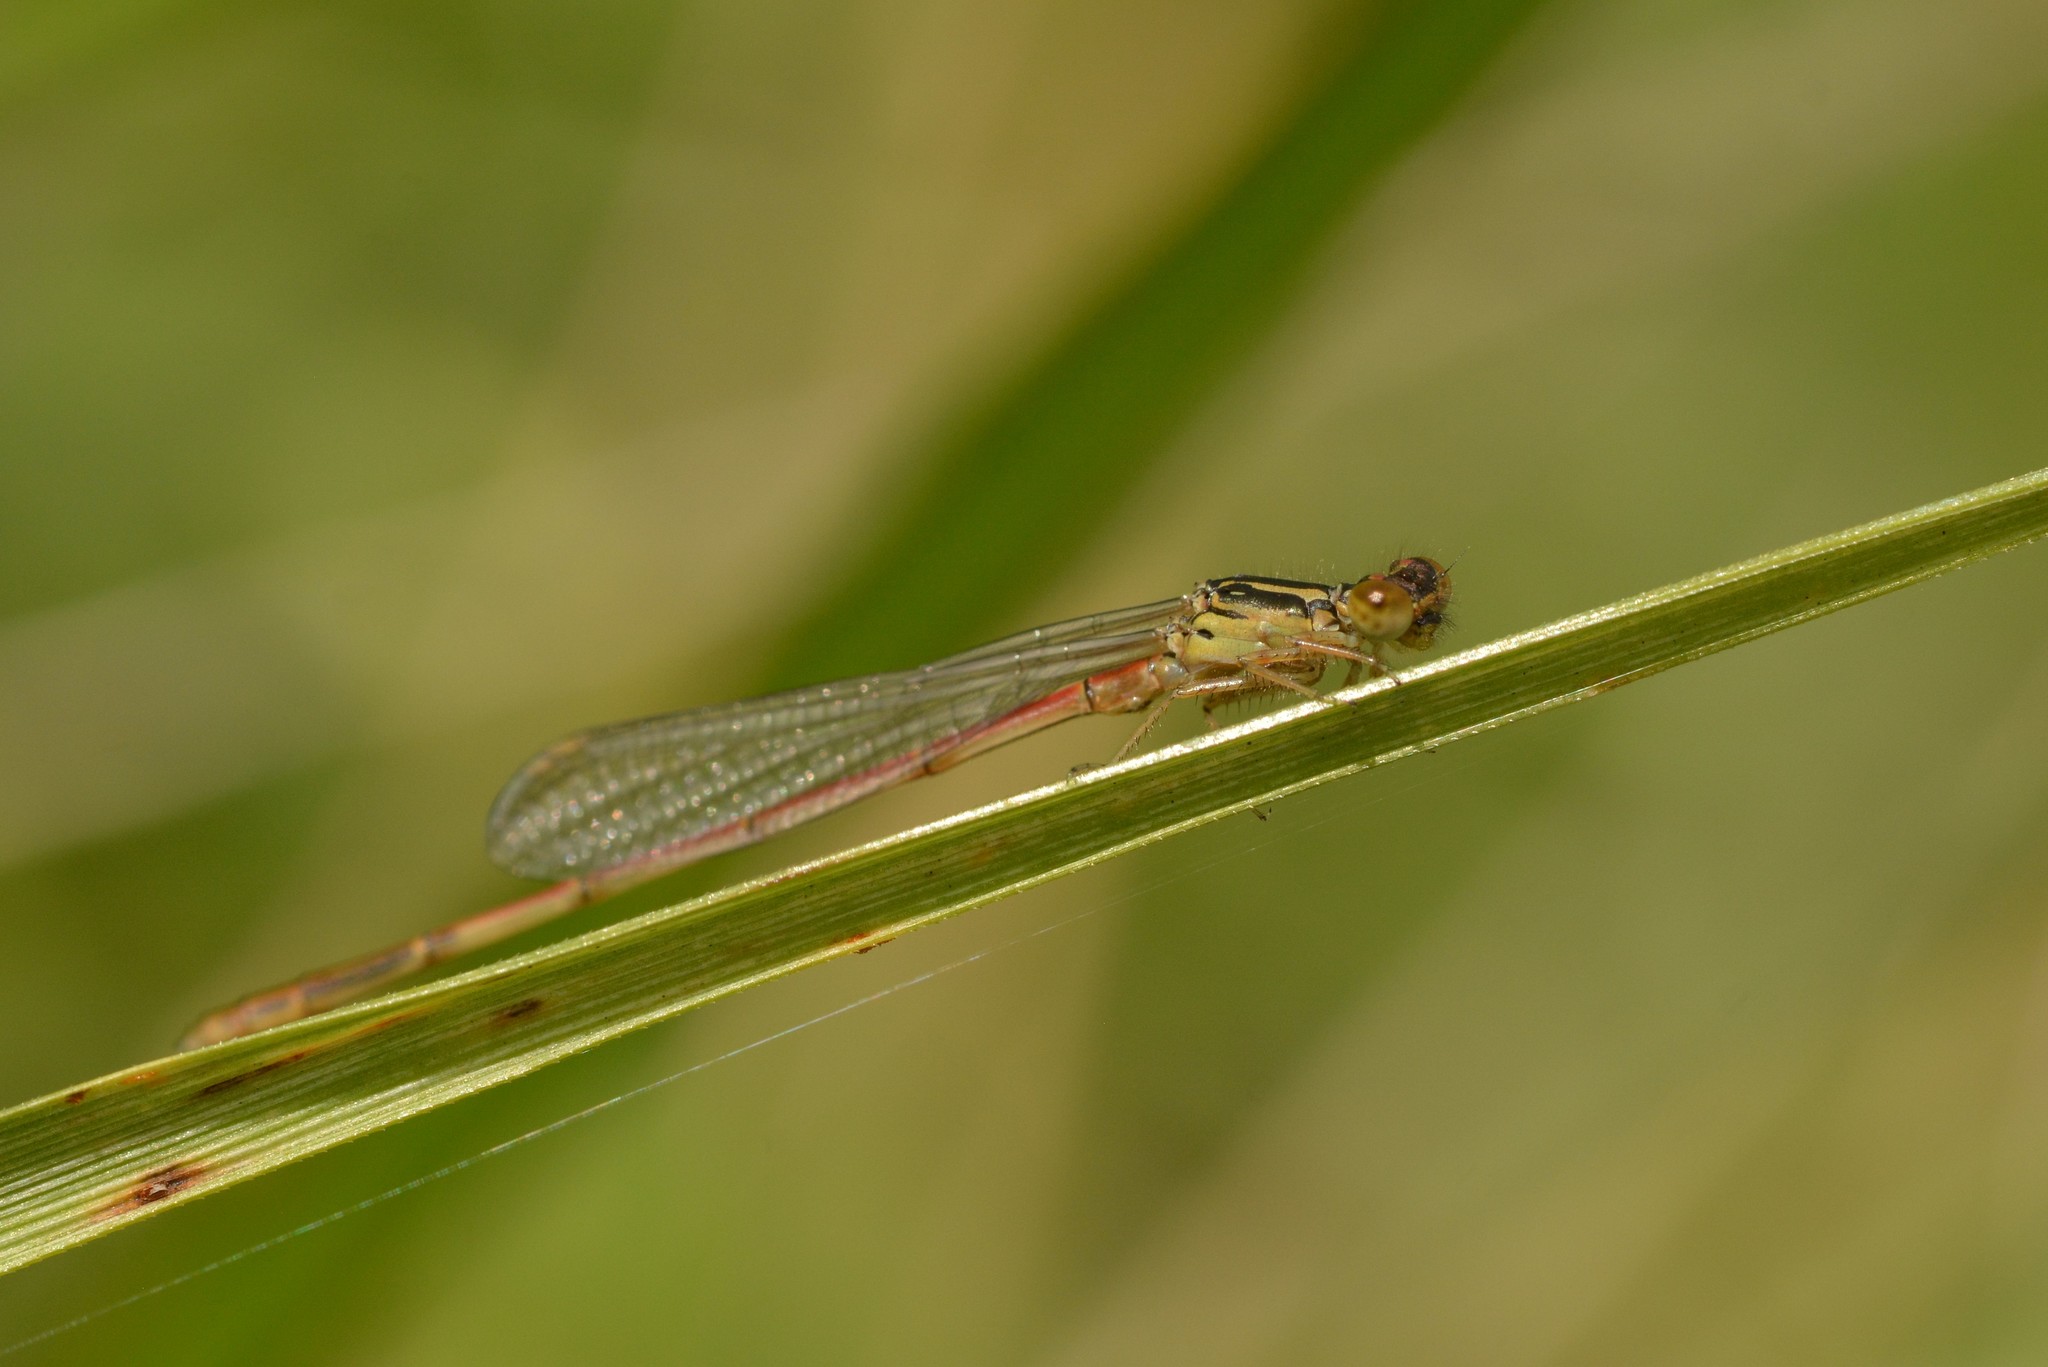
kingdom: Animalia
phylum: Arthropoda
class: Insecta
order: Odonata
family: Coenagrionidae
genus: Xanthocnemis
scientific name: Xanthocnemis zealandica
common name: Common redcoat damselfly
